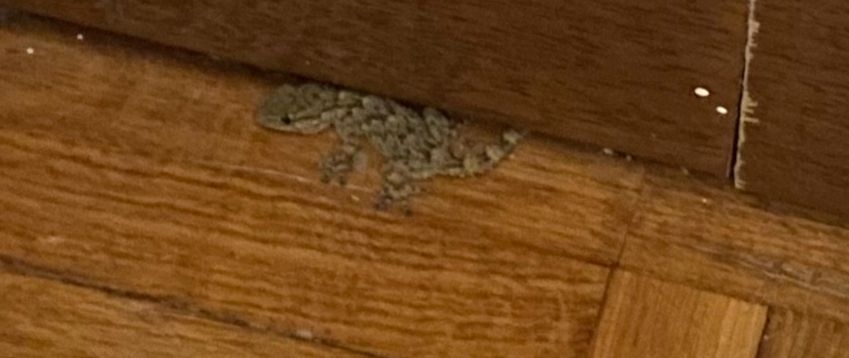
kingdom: Animalia
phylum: Chordata
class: Squamata
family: Phyllodactylidae
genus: Tarentola
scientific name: Tarentola mauritanica
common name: Moorish gecko
